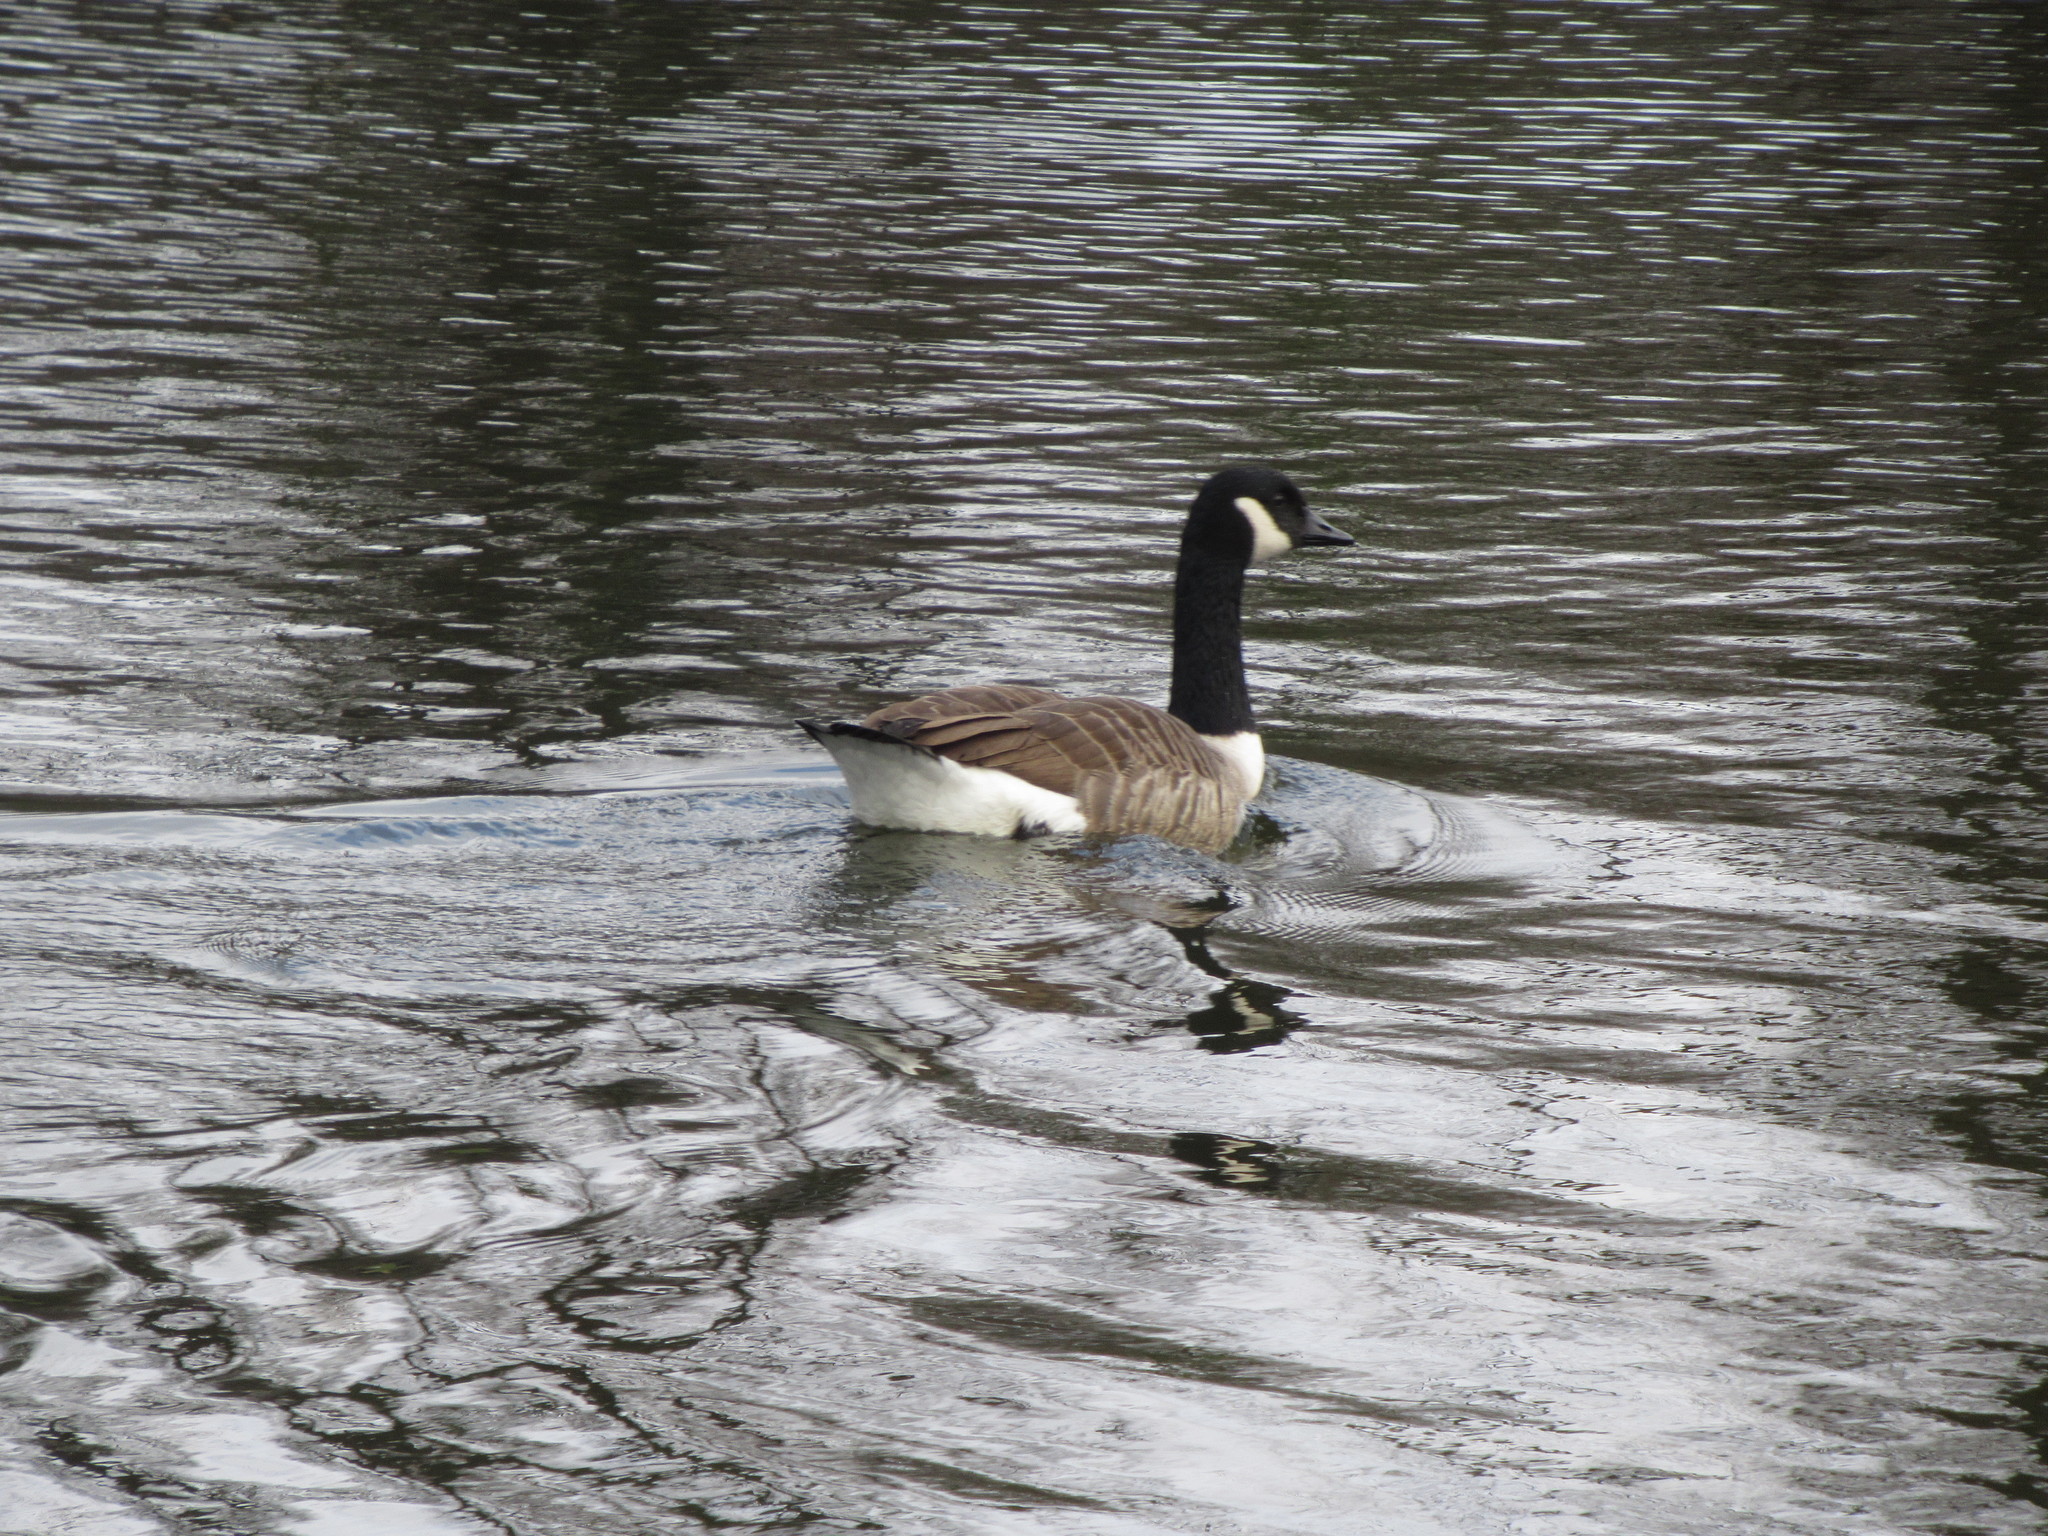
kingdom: Animalia
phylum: Chordata
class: Aves
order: Anseriformes
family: Anatidae
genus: Branta
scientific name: Branta canadensis
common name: Canada goose
